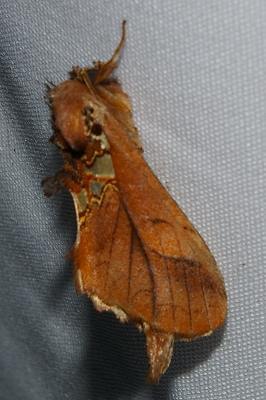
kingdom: Animalia
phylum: Arthropoda
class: Insecta
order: Lepidoptera
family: Notodontidae
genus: Spatalia
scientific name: Spatalia dives
